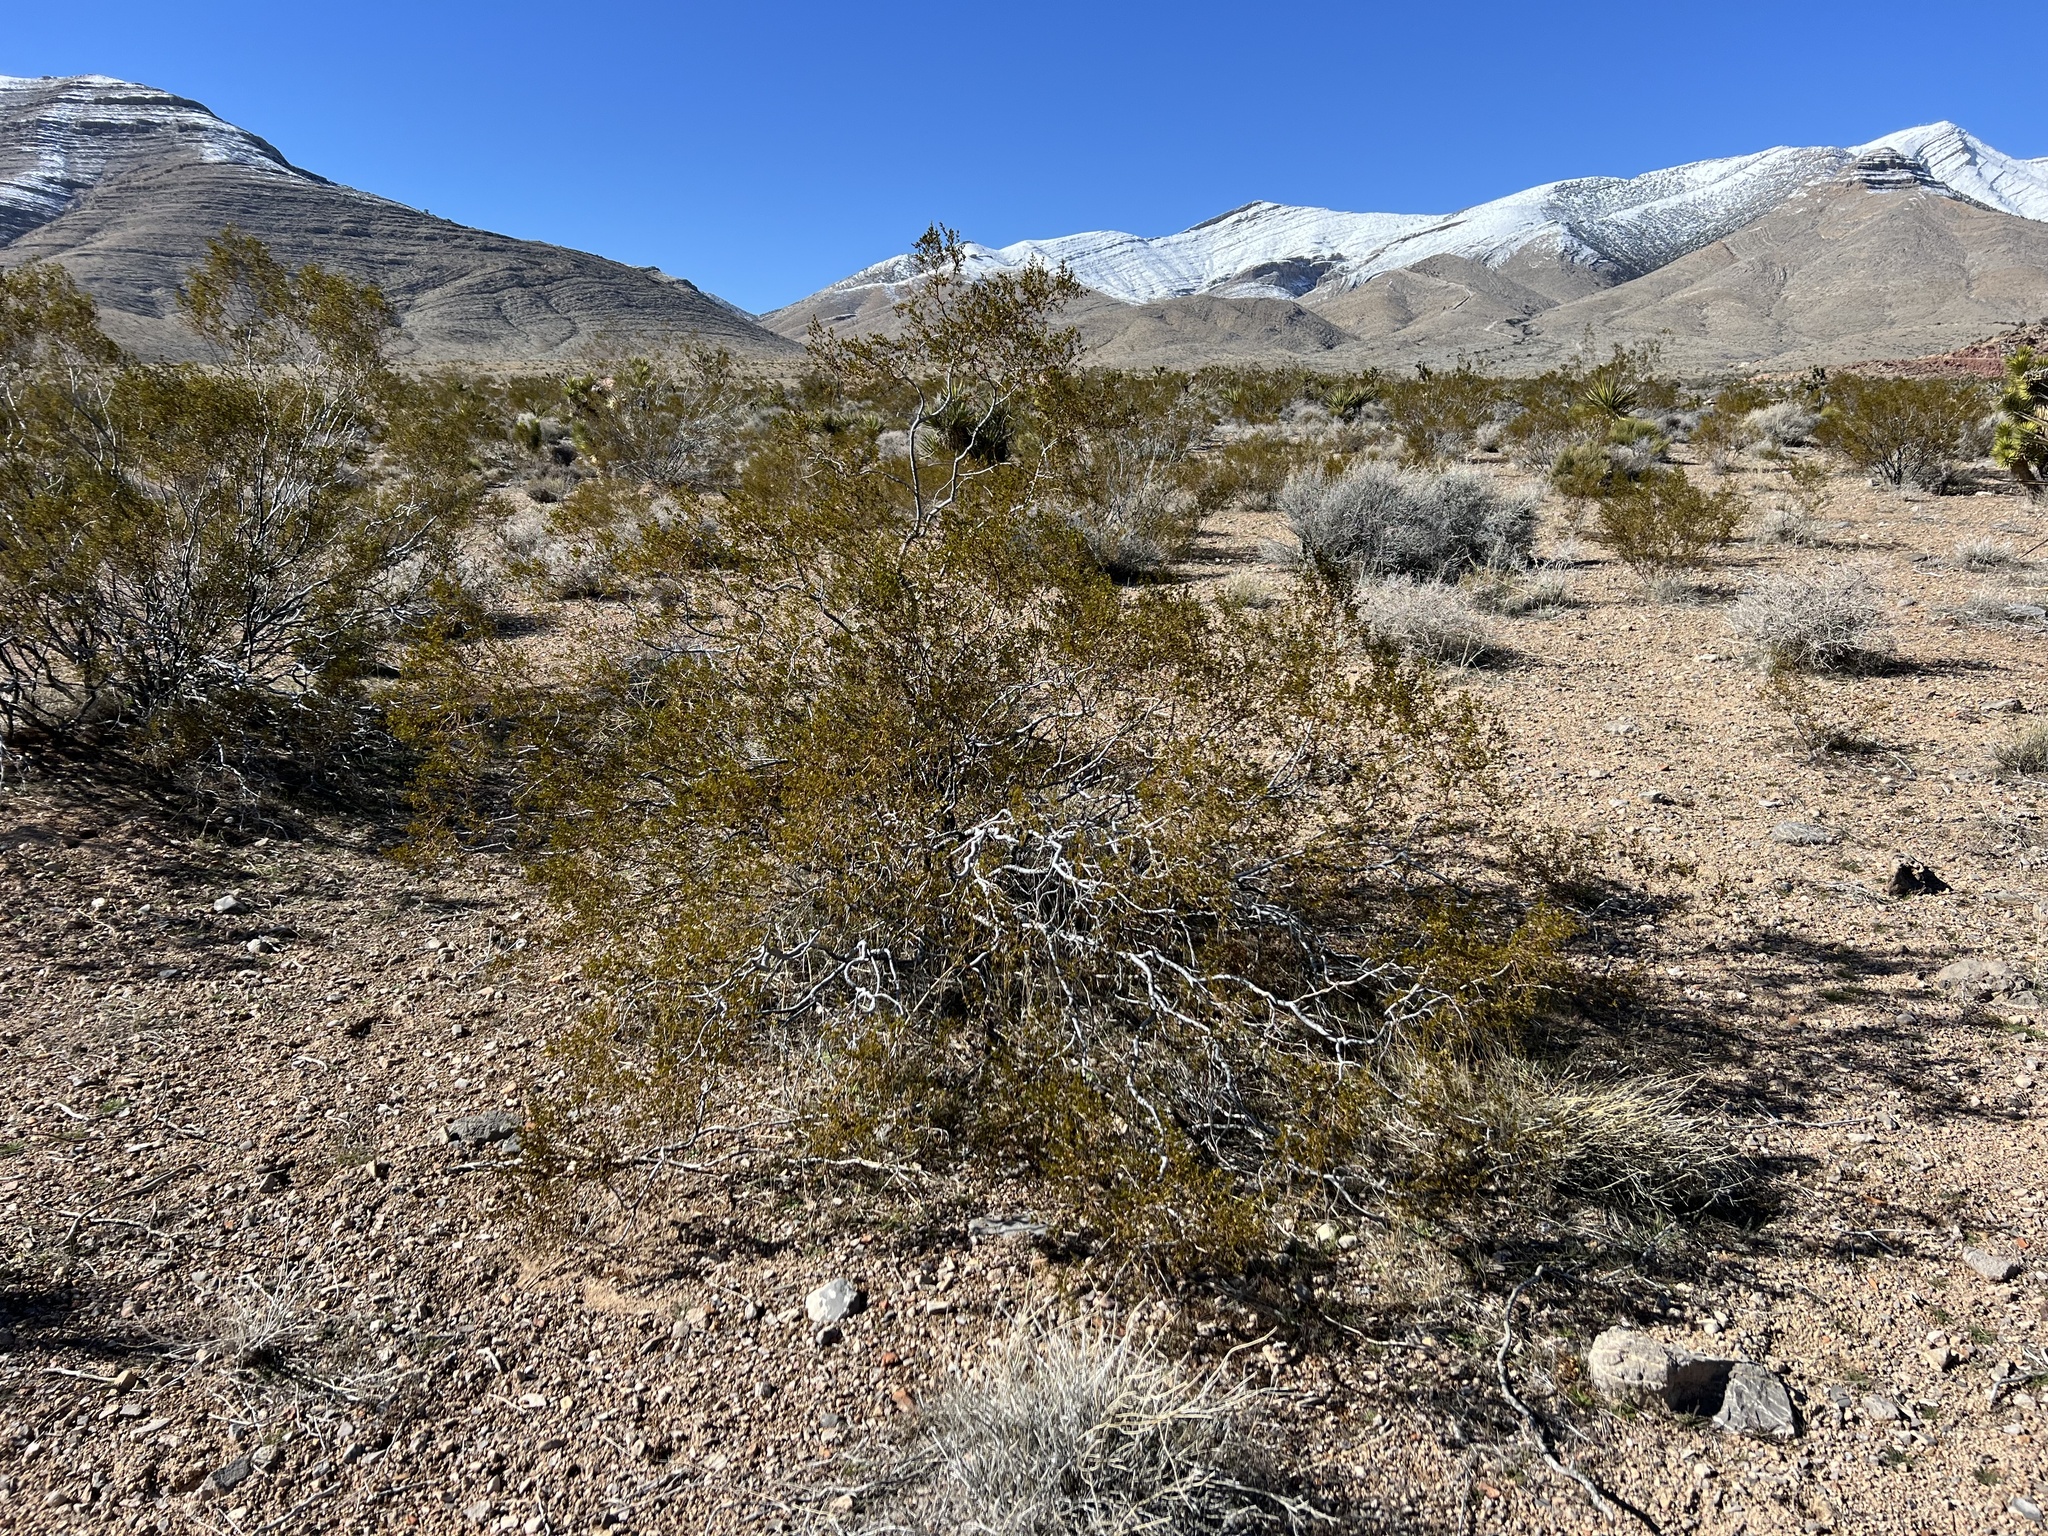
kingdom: Plantae
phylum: Tracheophyta
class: Magnoliopsida
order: Zygophyllales
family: Zygophyllaceae
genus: Larrea
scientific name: Larrea tridentata
